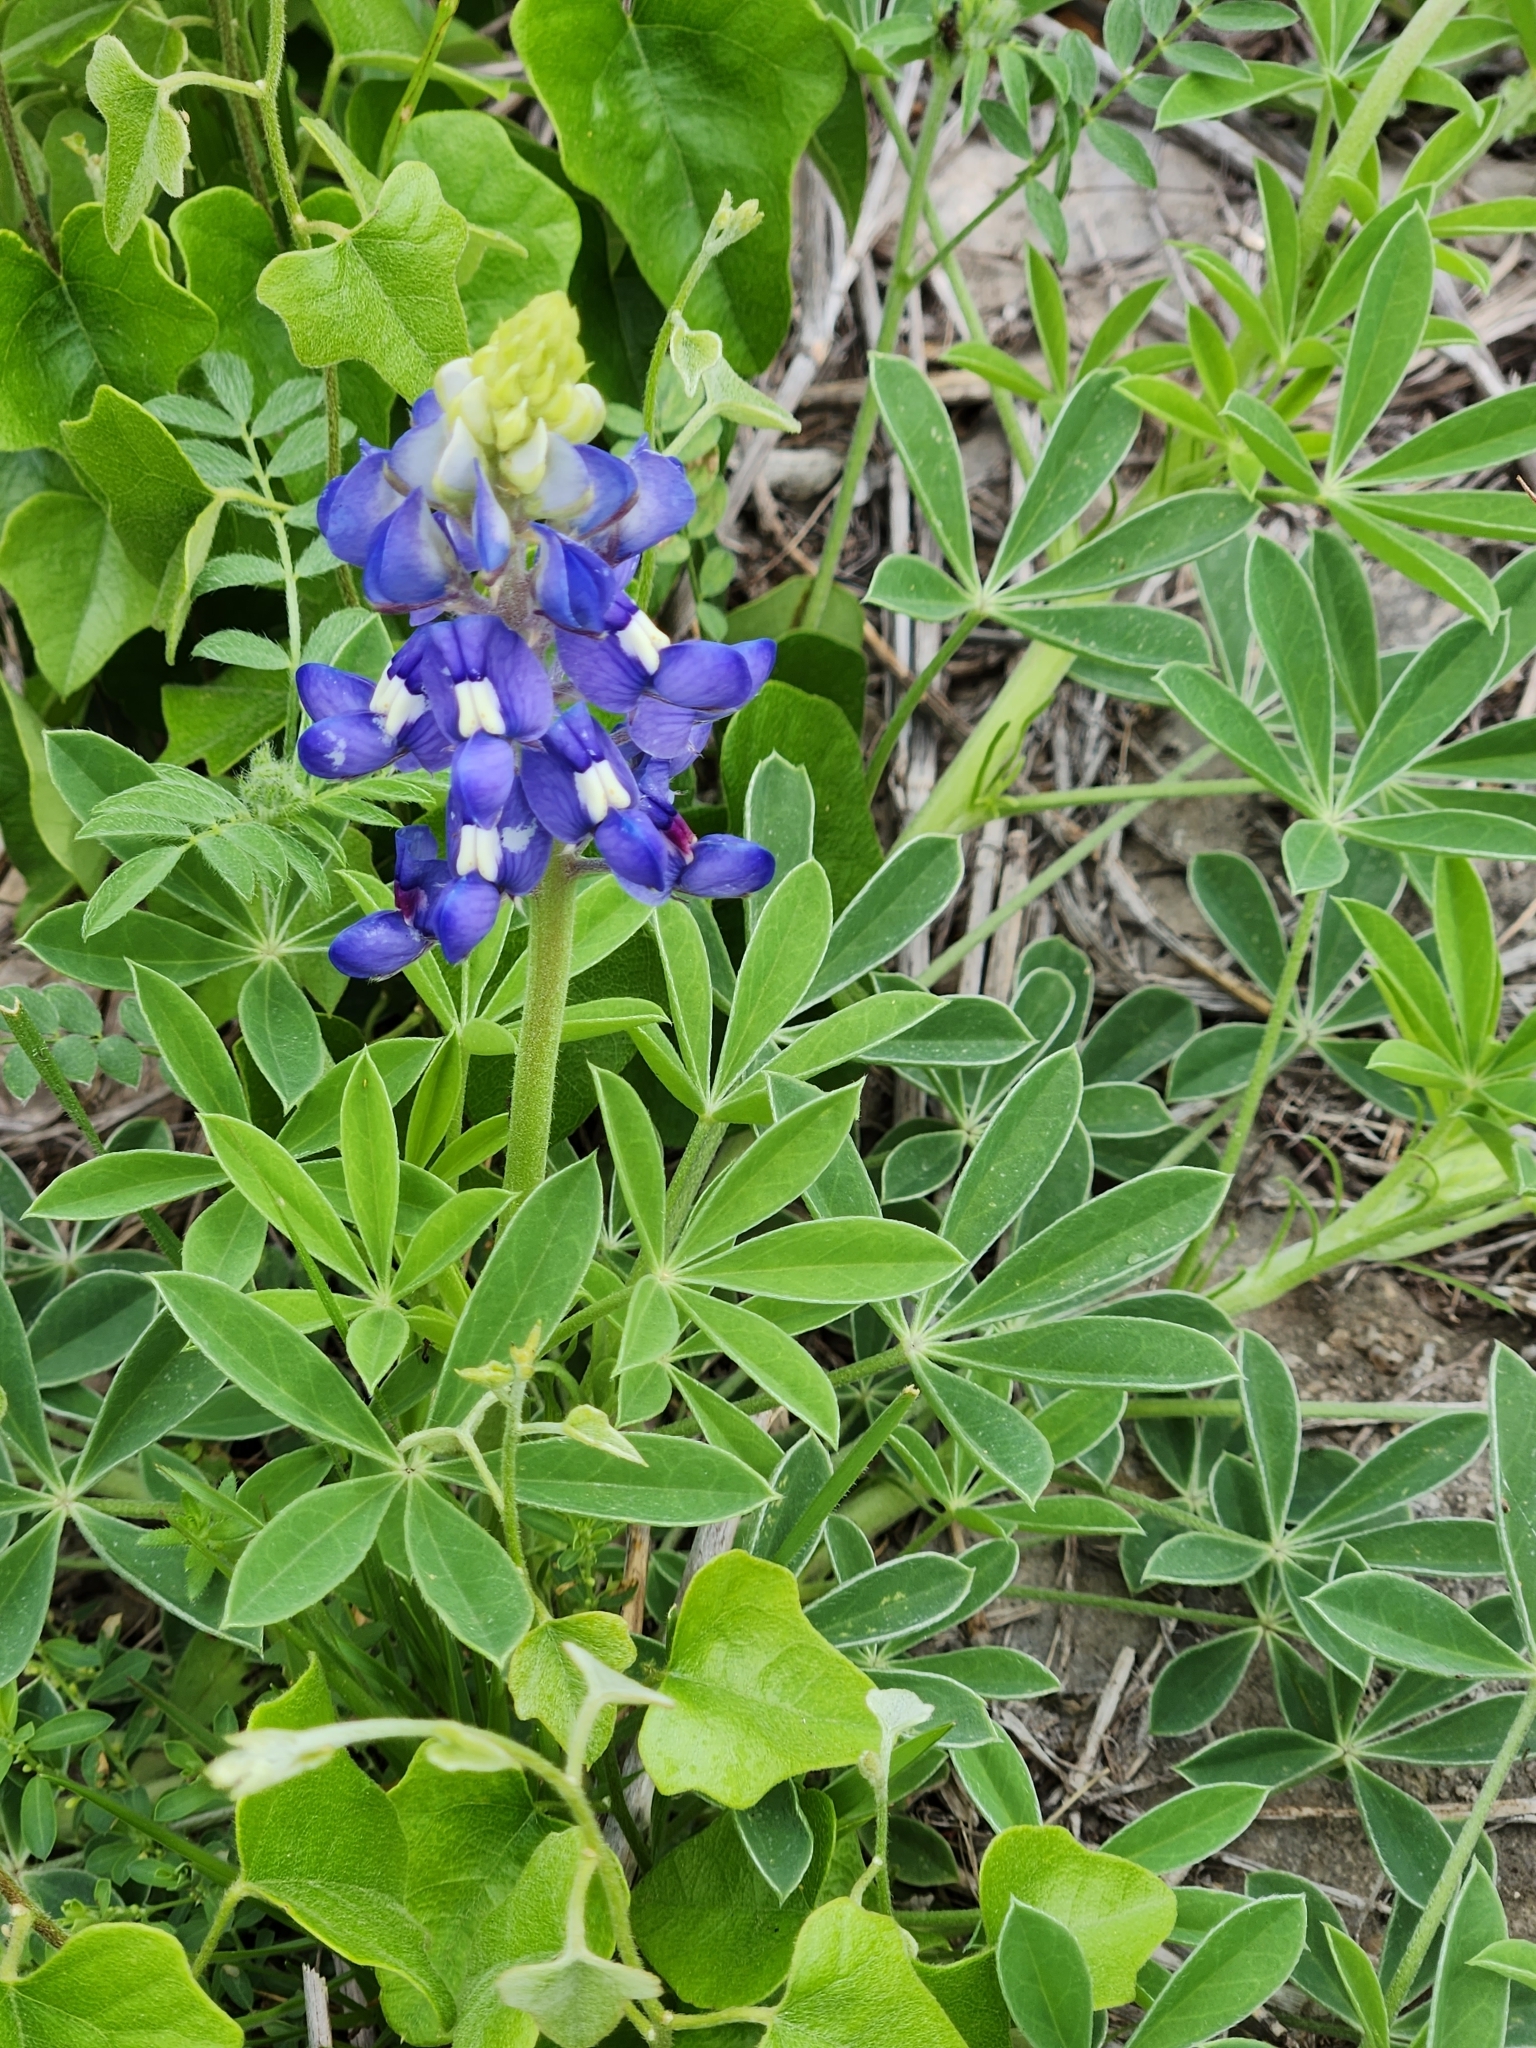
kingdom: Plantae
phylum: Tracheophyta
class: Magnoliopsida
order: Fabales
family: Fabaceae
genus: Lupinus
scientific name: Lupinus texensis
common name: Texas bluebonnet
